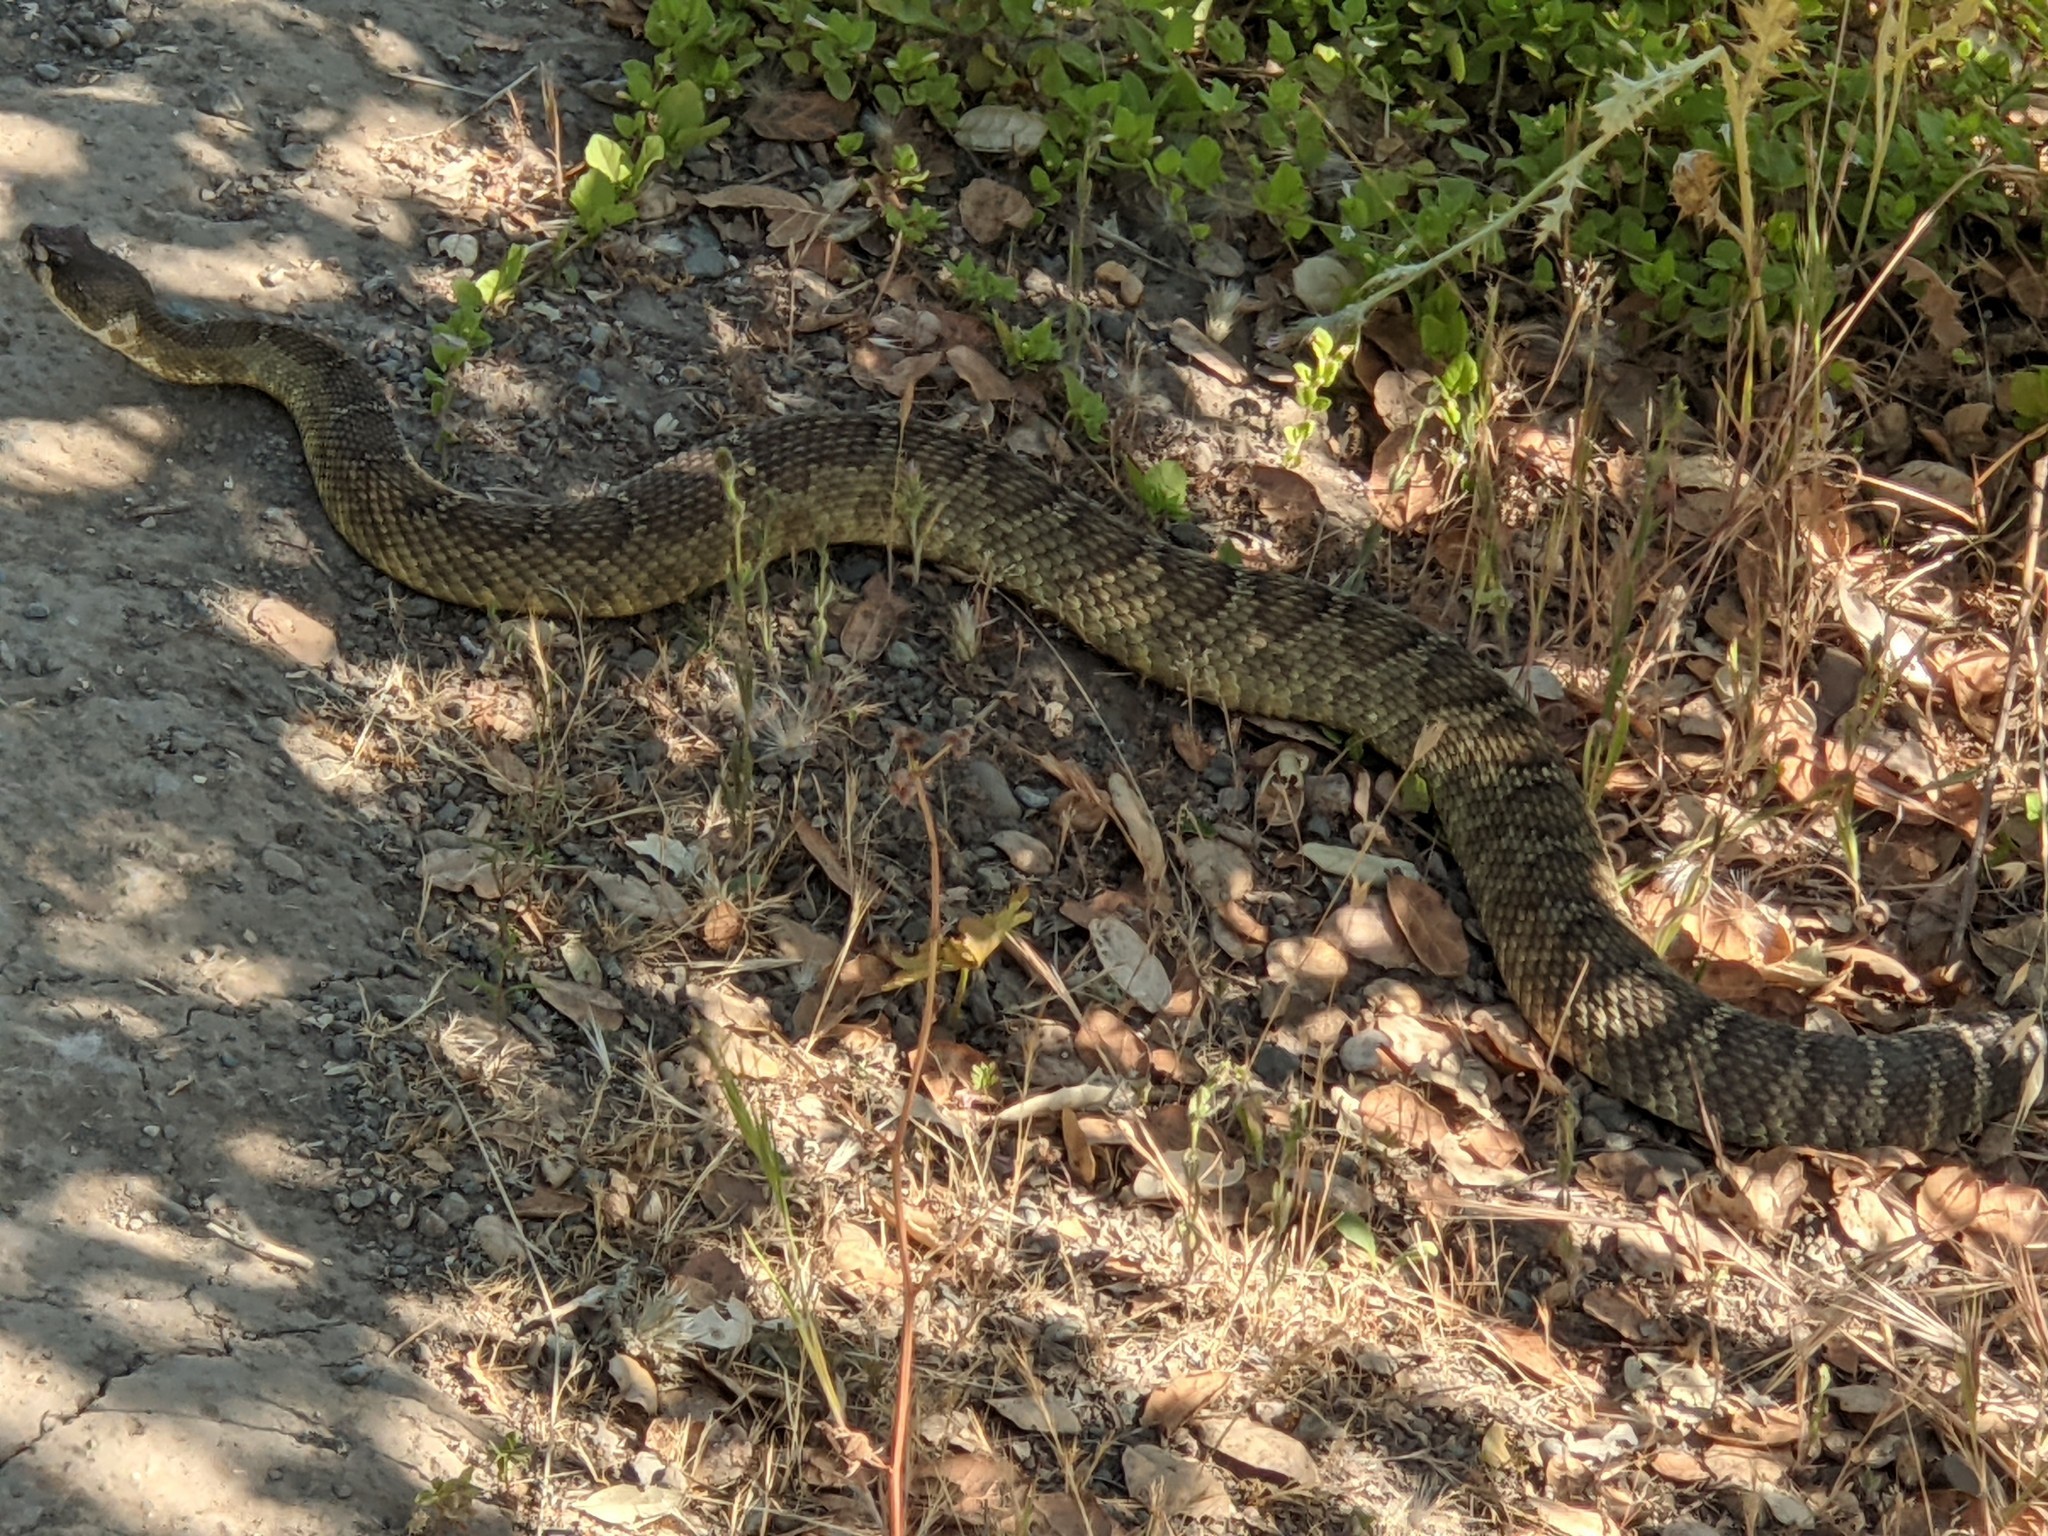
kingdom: Animalia
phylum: Chordata
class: Squamata
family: Viperidae
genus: Crotalus
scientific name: Crotalus oreganus
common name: Abyssus
